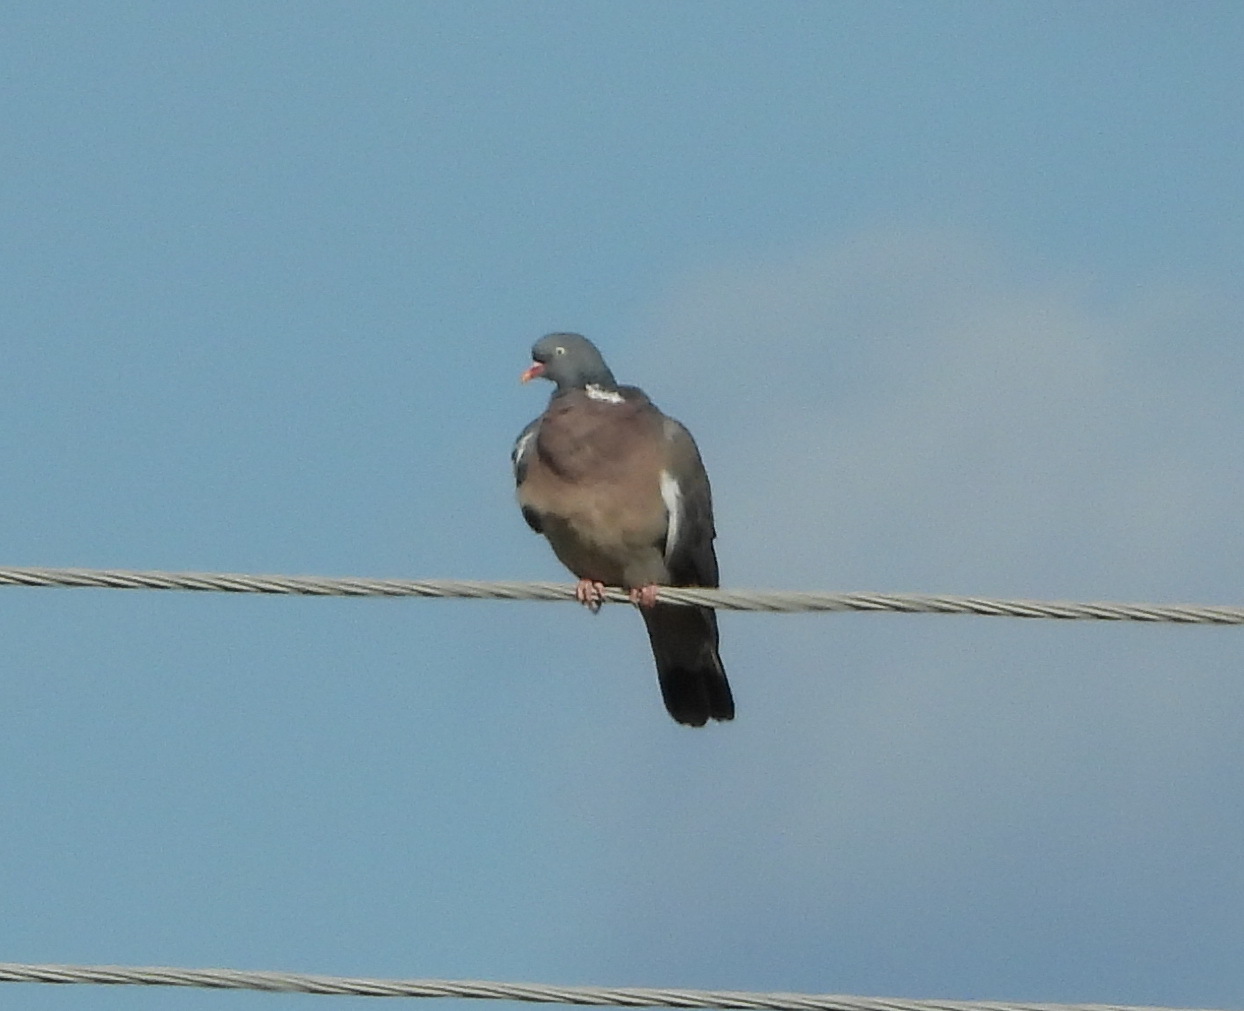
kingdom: Animalia
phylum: Chordata
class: Aves
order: Columbiformes
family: Columbidae
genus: Columba
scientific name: Columba palumbus
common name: Common wood pigeon
